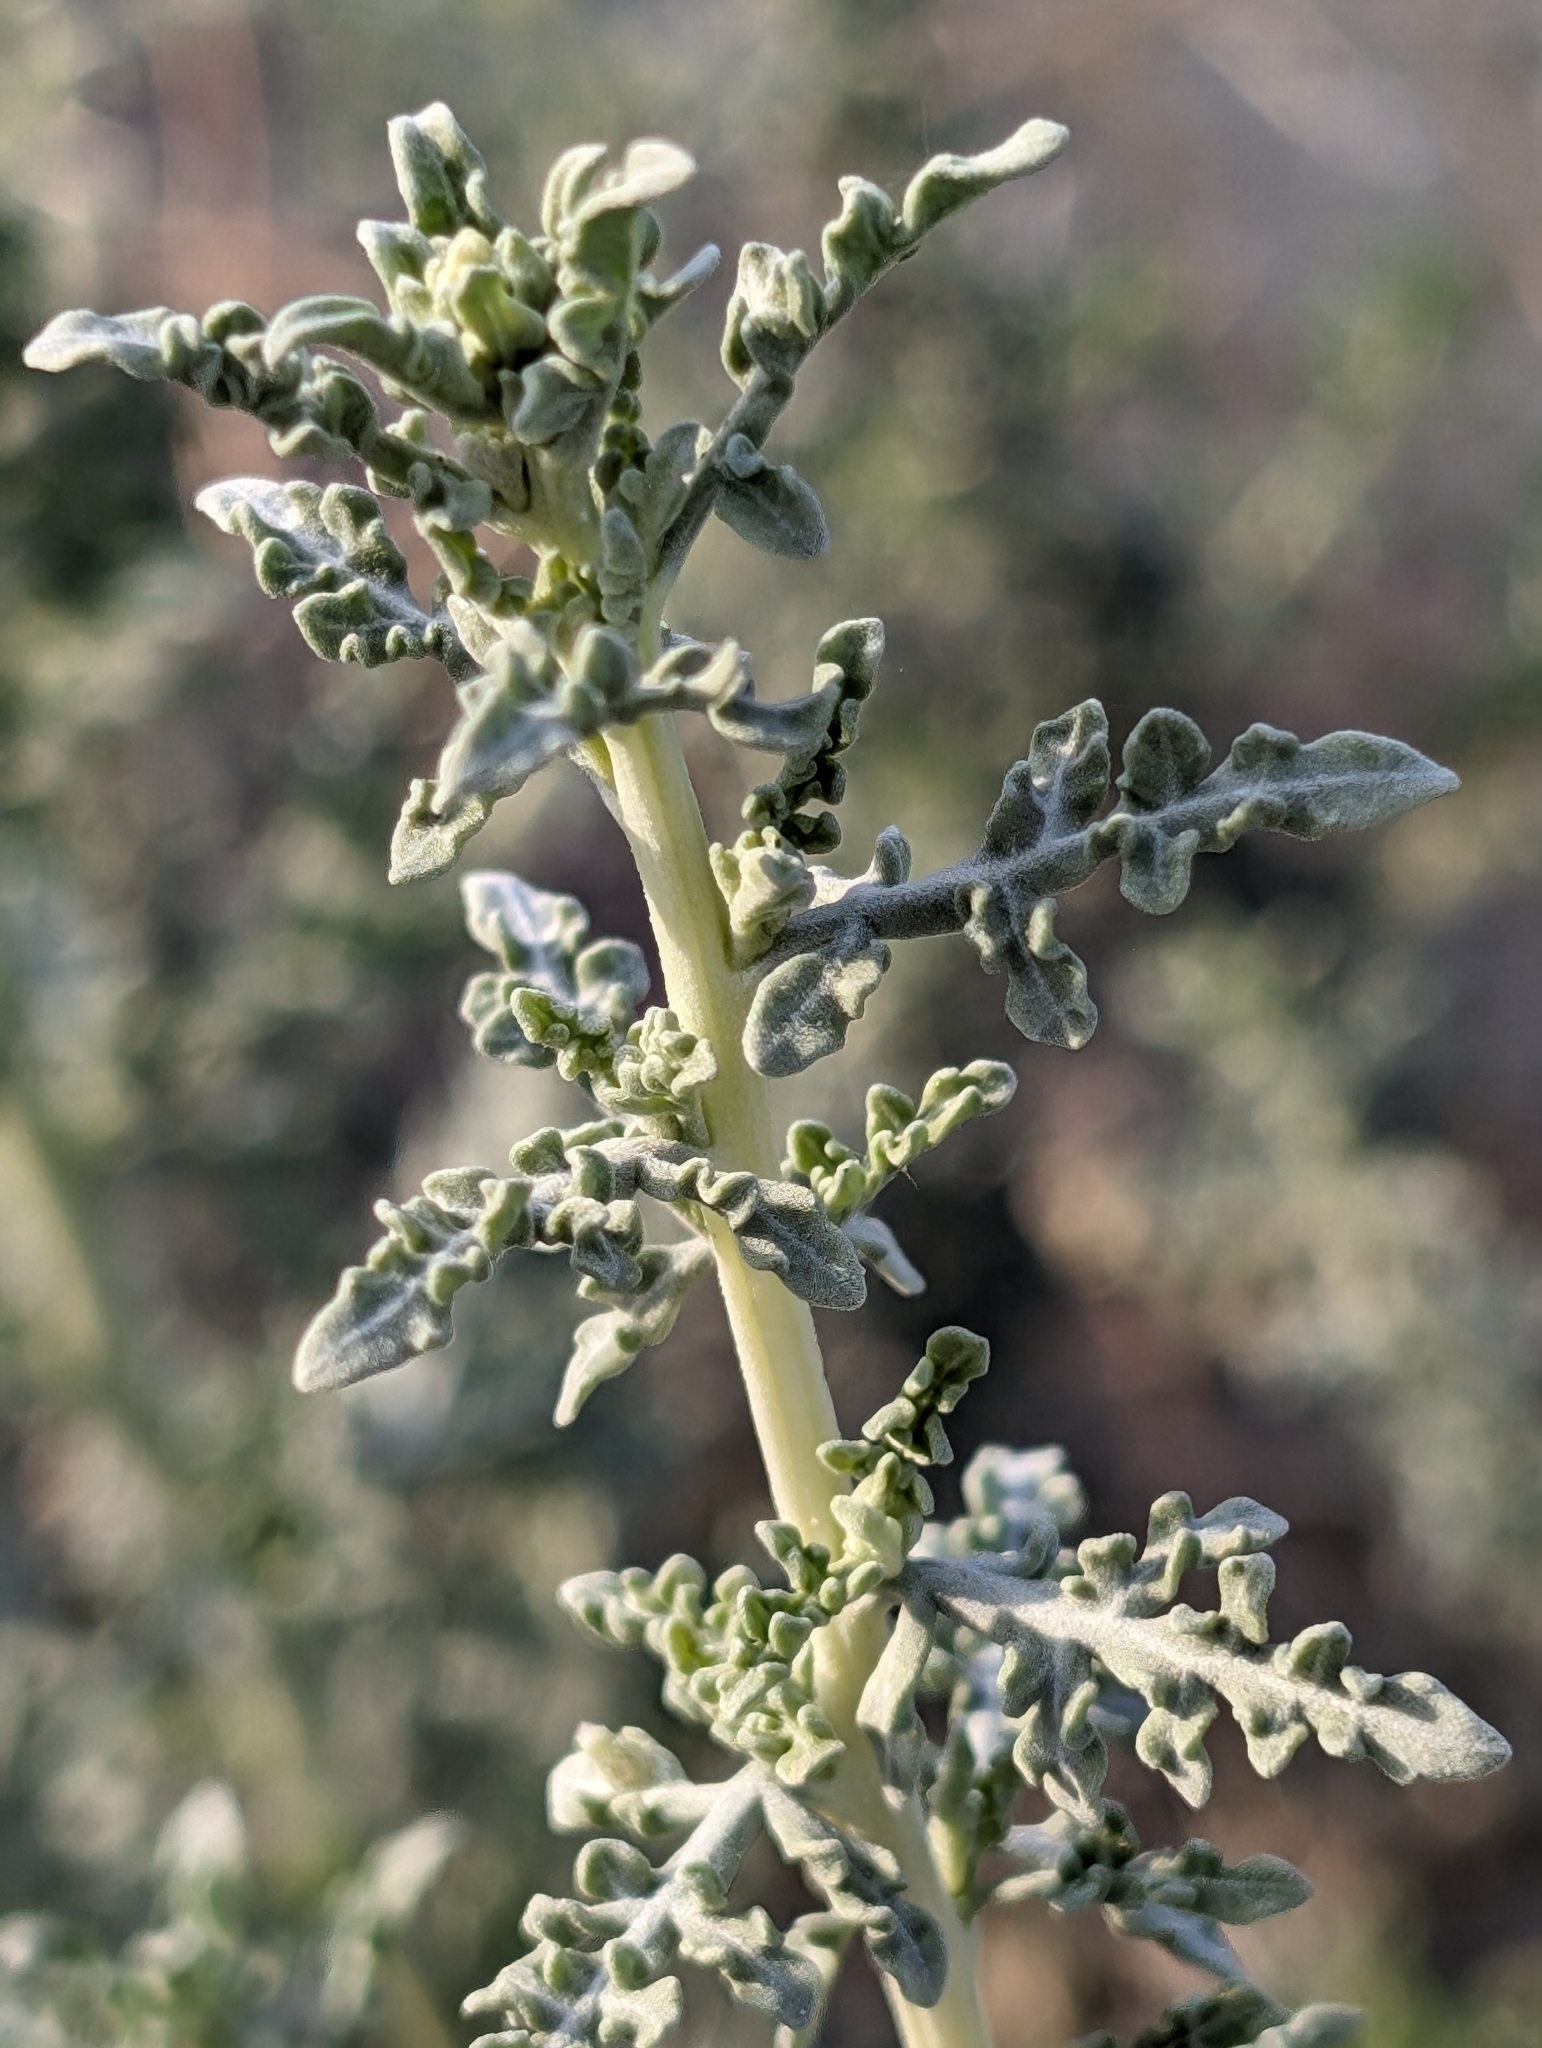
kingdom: Plantae
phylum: Tracheophyta
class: Magnoliopsida
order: Asterales
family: Asteraceae
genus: Ambrosia
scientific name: Ambrosia dumosa
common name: Bur-sage
